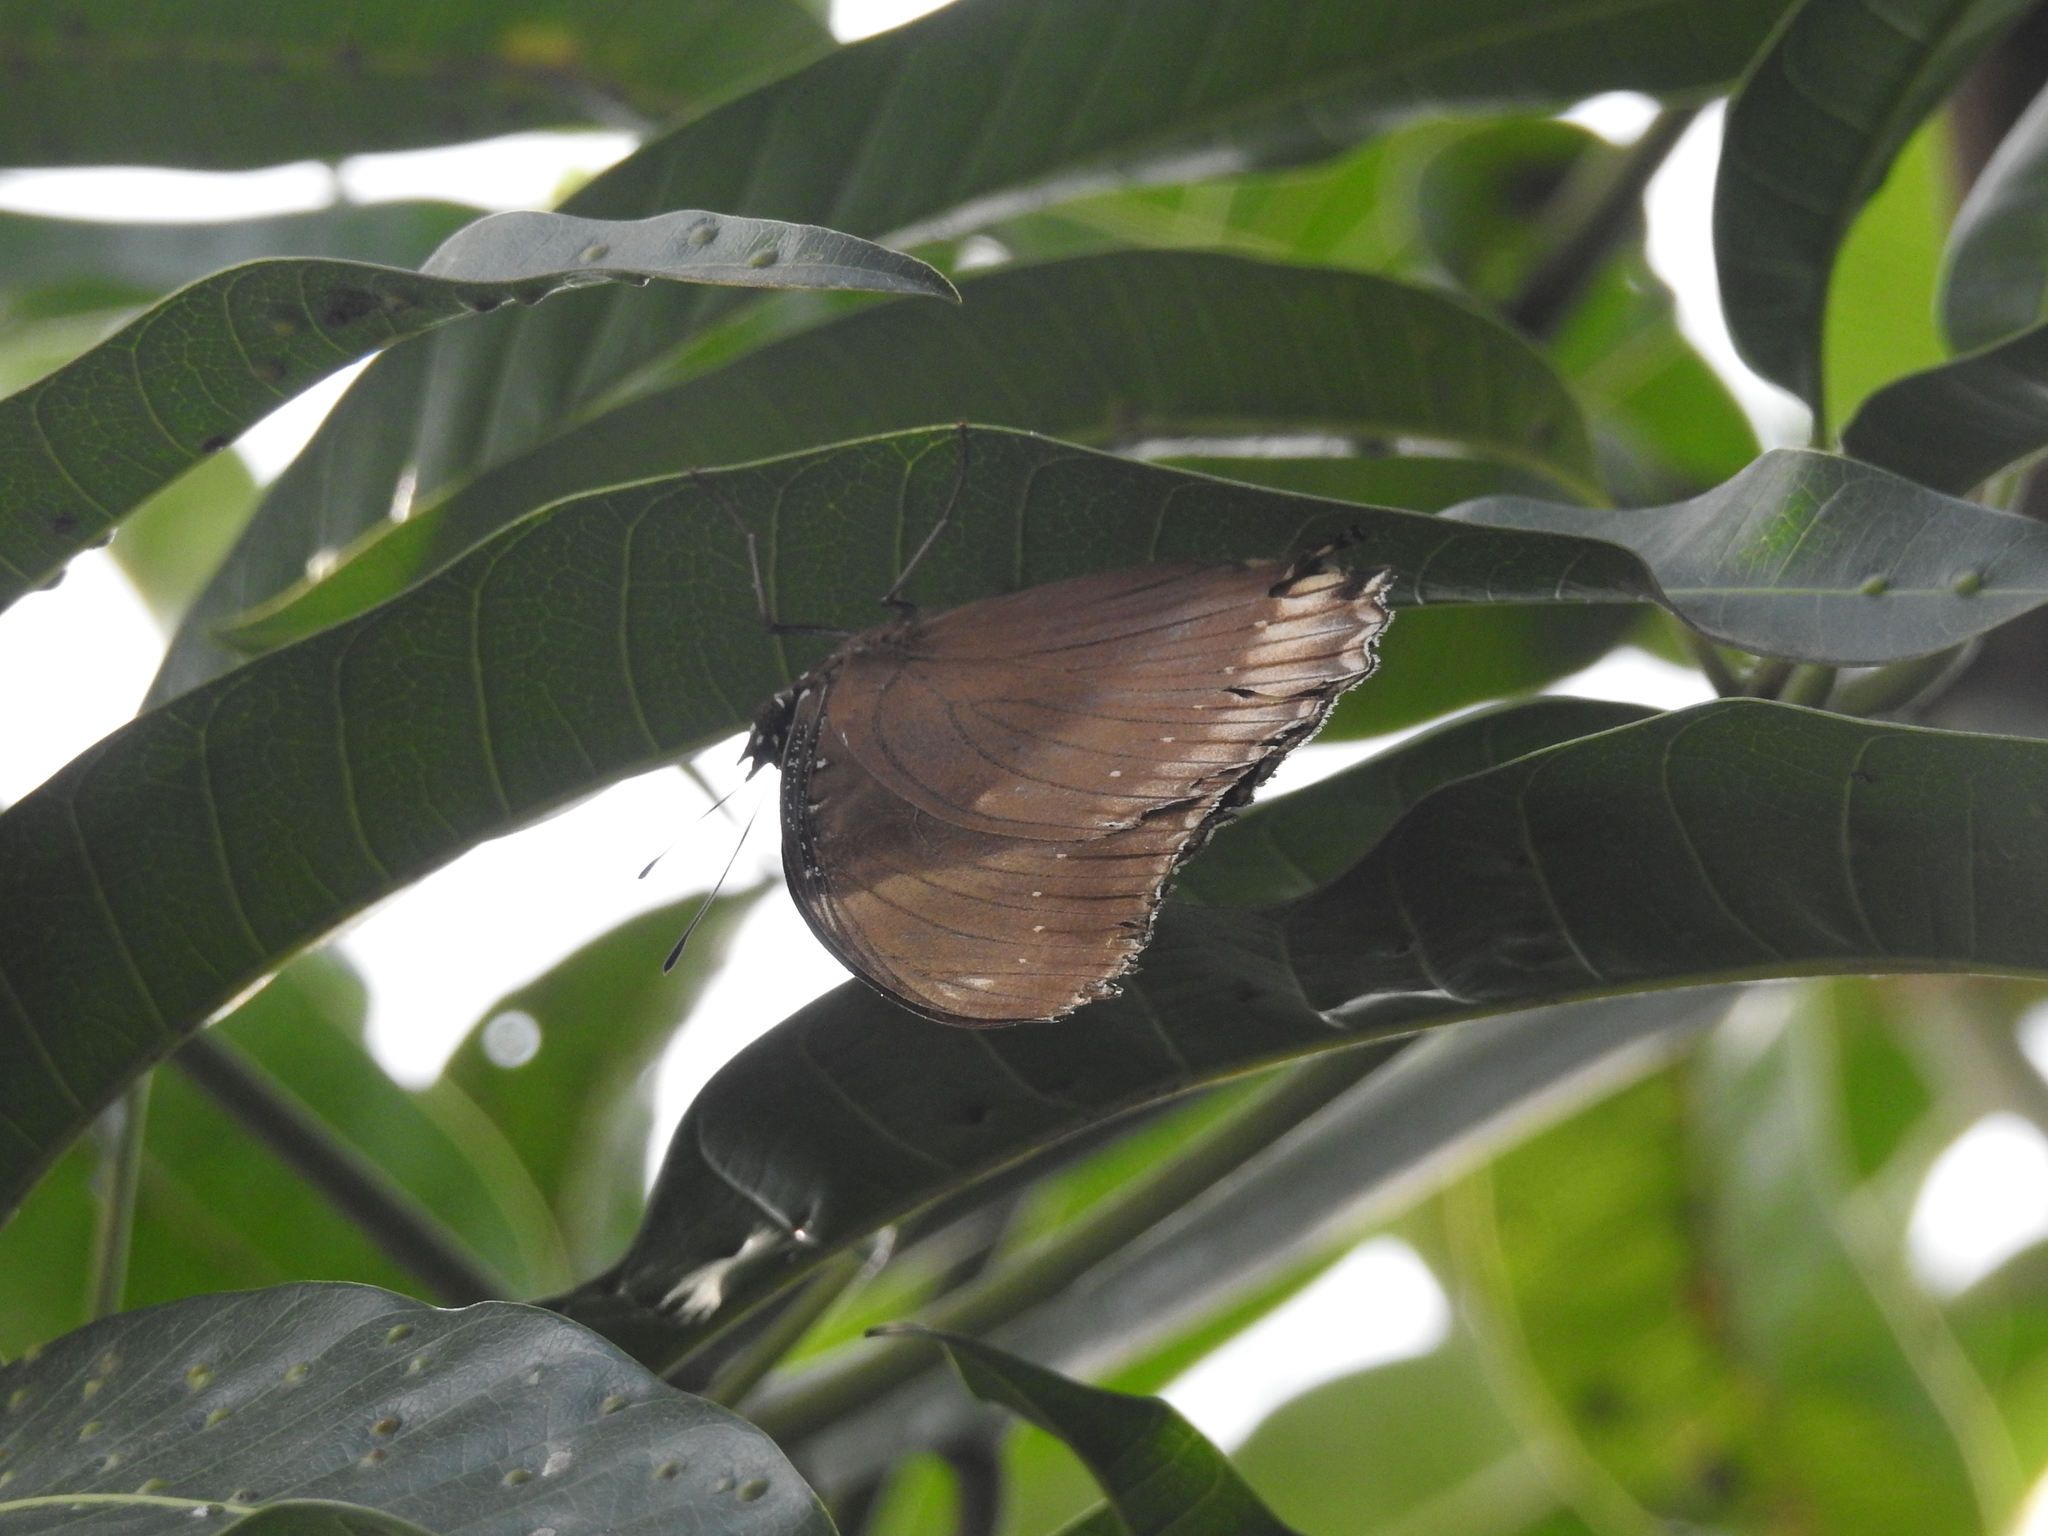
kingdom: Animalia
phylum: Arthropoda
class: Insecta
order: Lepidoptera
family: Nymphalidae
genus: Hypolimnas
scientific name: Hypolimnas bolina
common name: Great eggfly
